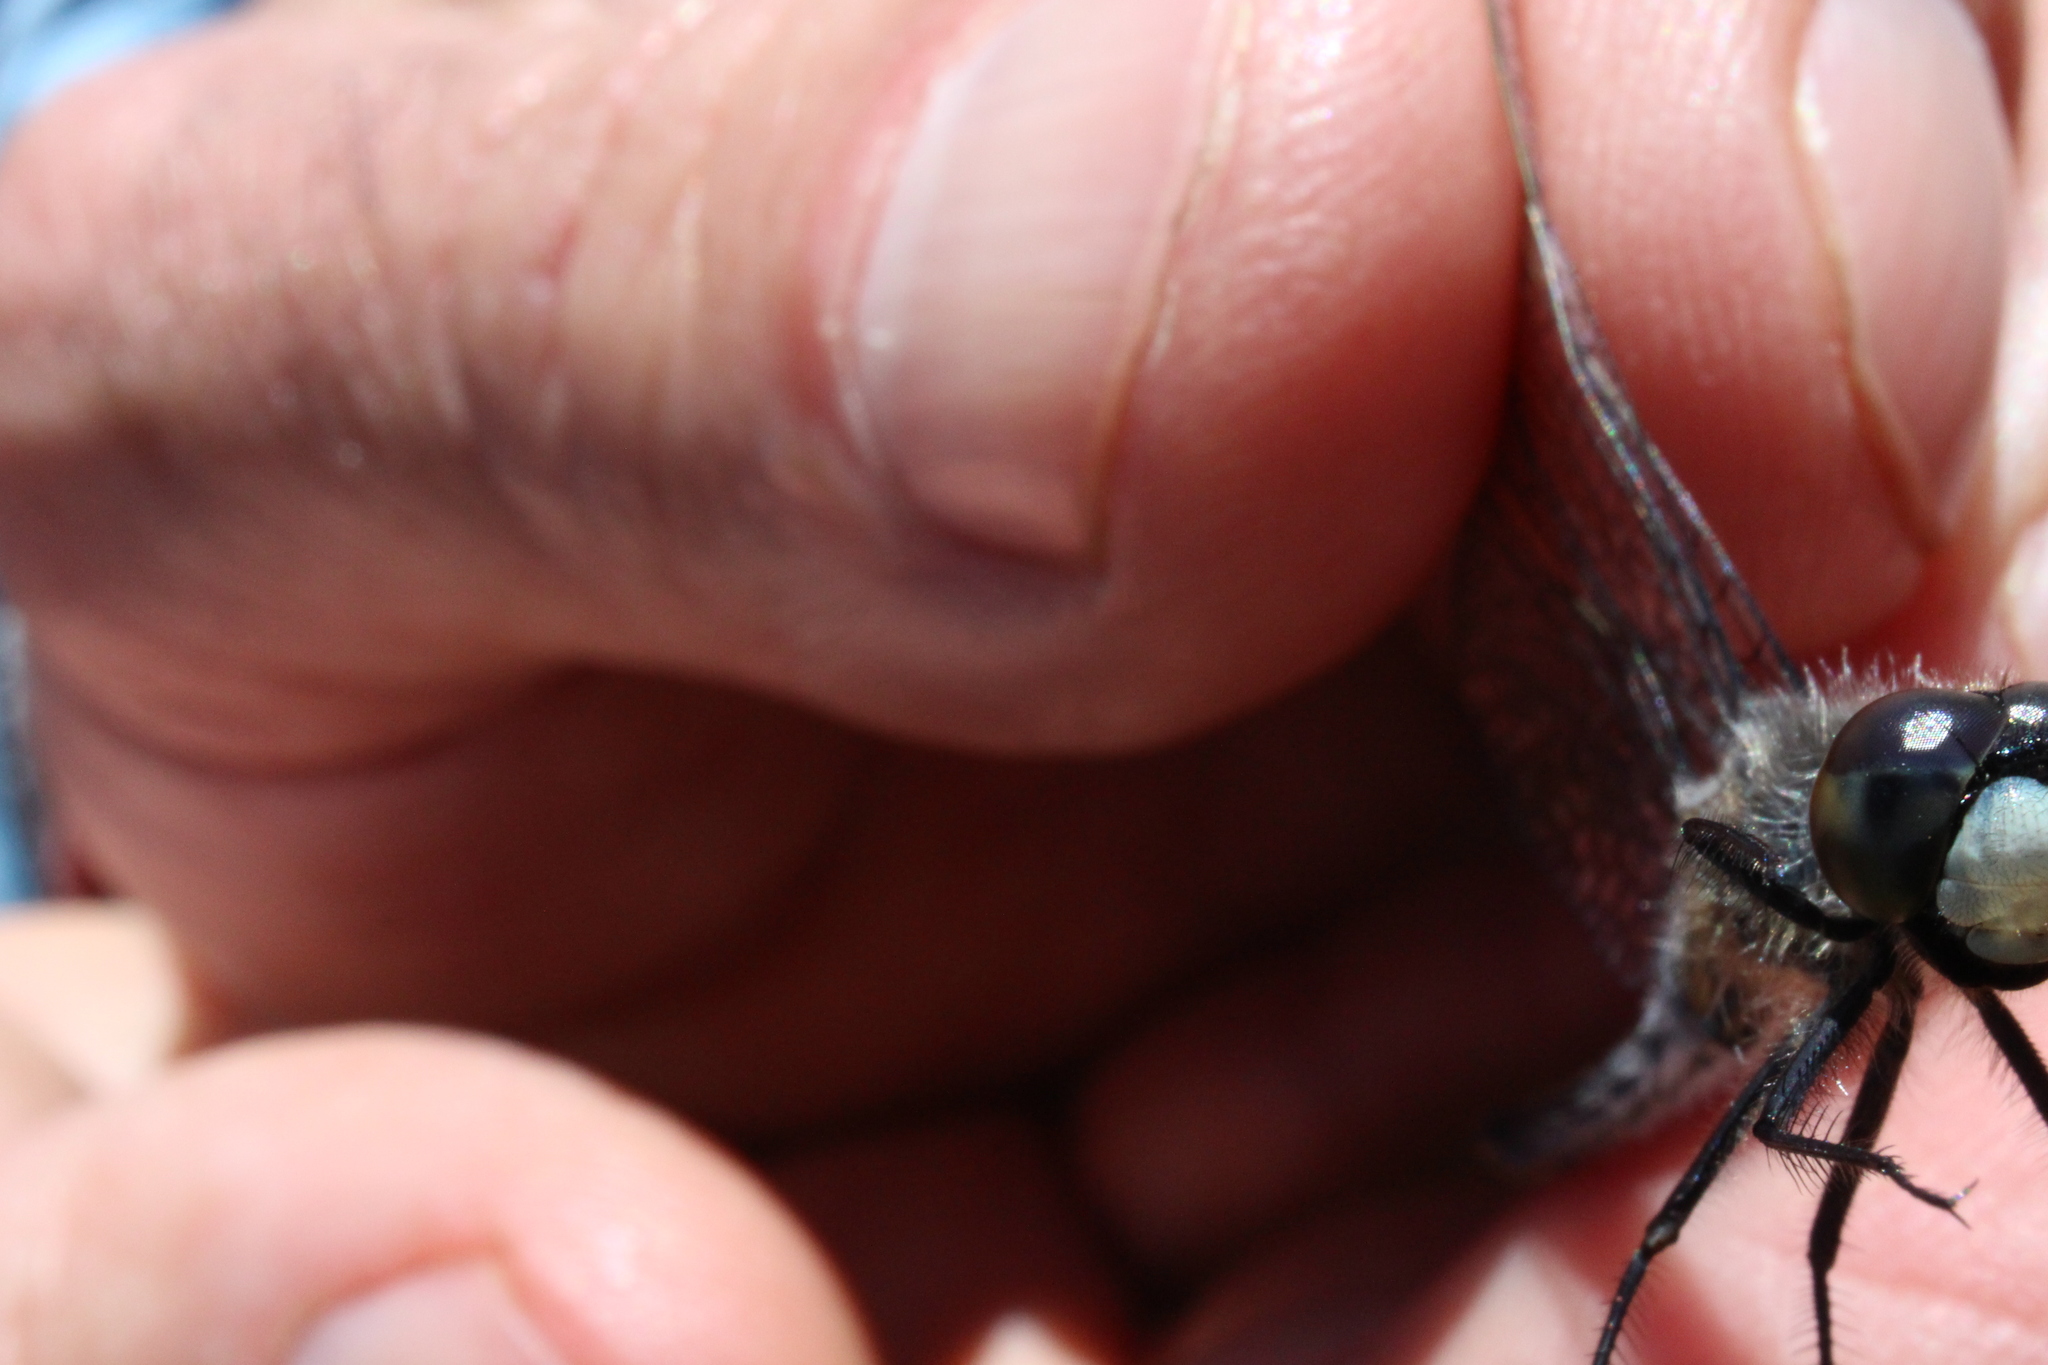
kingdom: Animalia
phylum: Arthropoda
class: Insecta
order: Odonata
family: Libellulidae
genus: Leucorrhinia
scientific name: Leucorrhinia frigida
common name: Frosted whiteface
